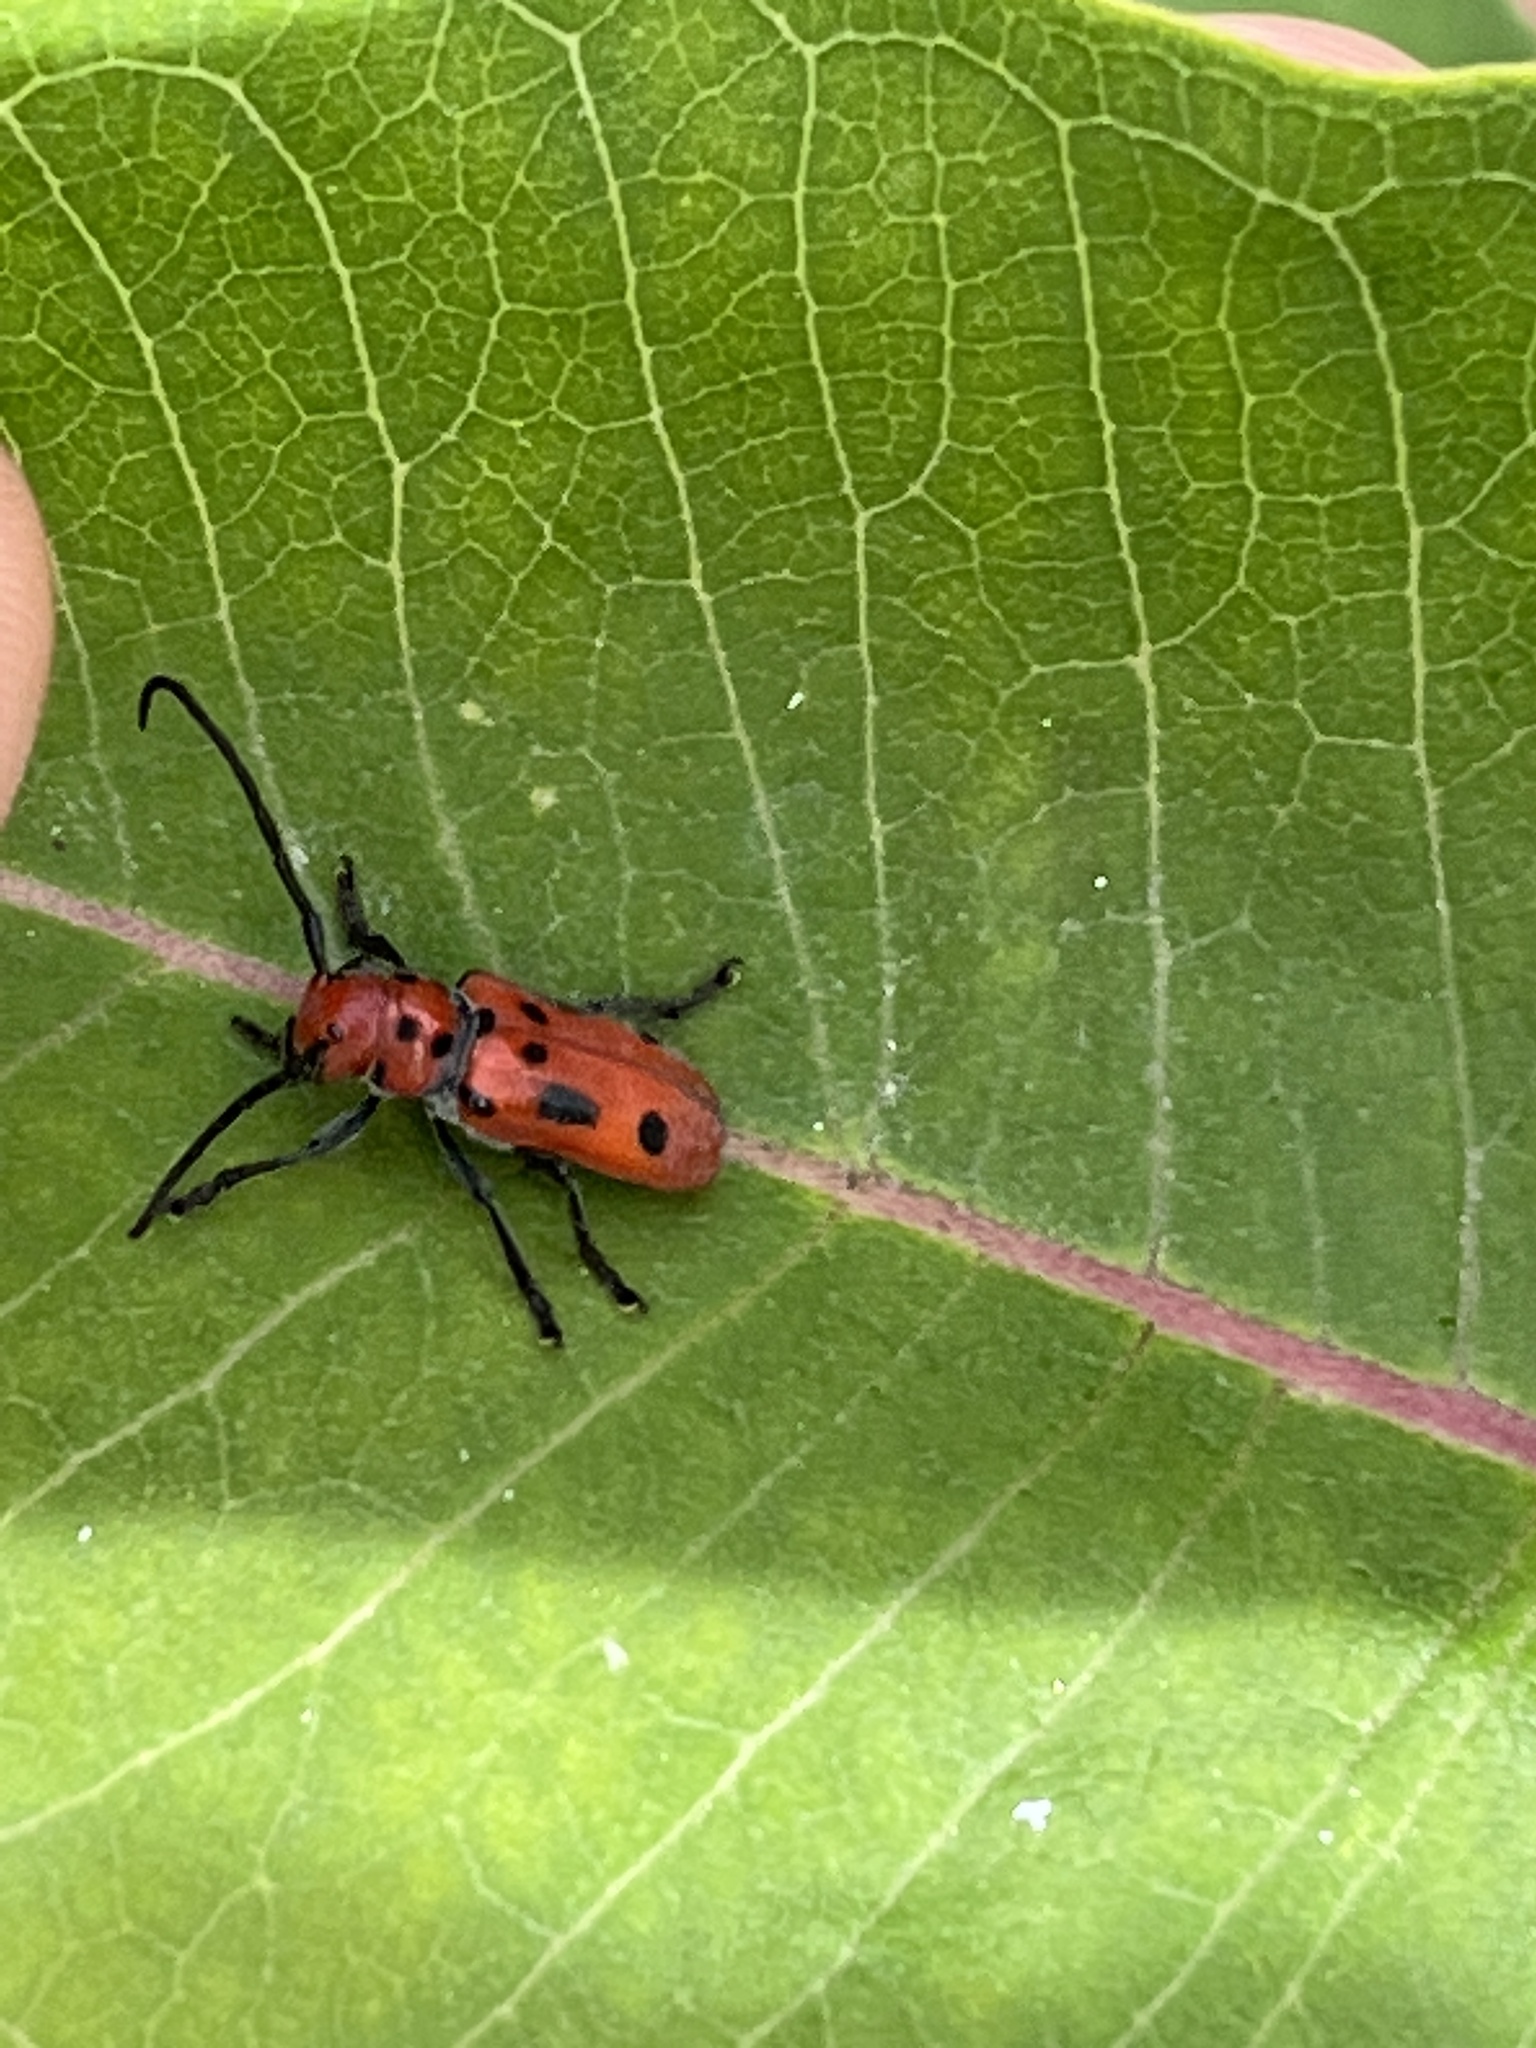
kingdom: Animalia
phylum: Arthropoda
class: Insecta
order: Coleoptera
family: Cerambycidae
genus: Tetraopes
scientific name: Tetraopes tetrophthalmus
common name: Red milkweed beetle
